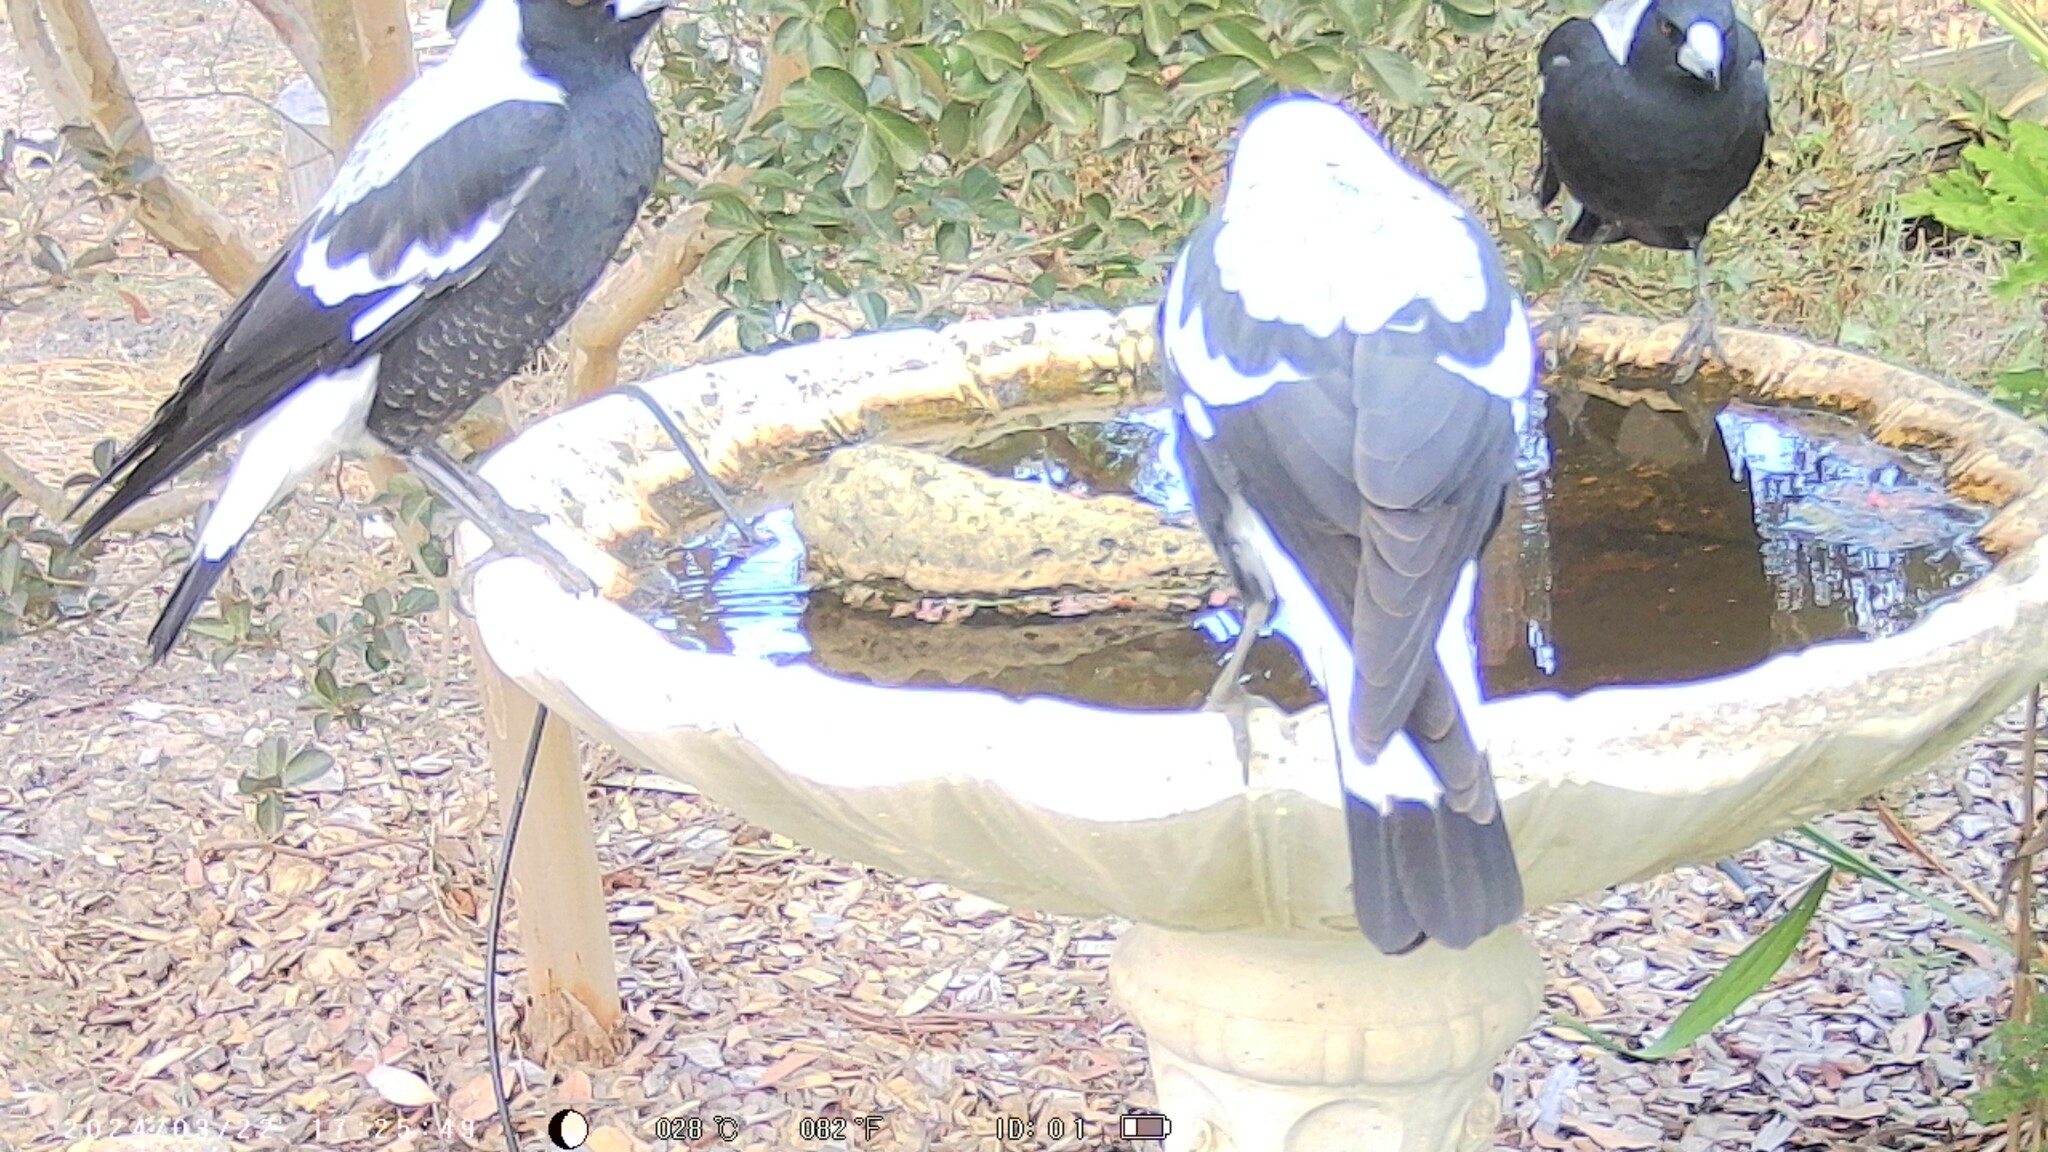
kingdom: Animalia
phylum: Chordata
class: Aves
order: Passeriformes
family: Cracticidae
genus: Gymnorhina
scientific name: Gymnorhina tibicen
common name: Australian magpie
